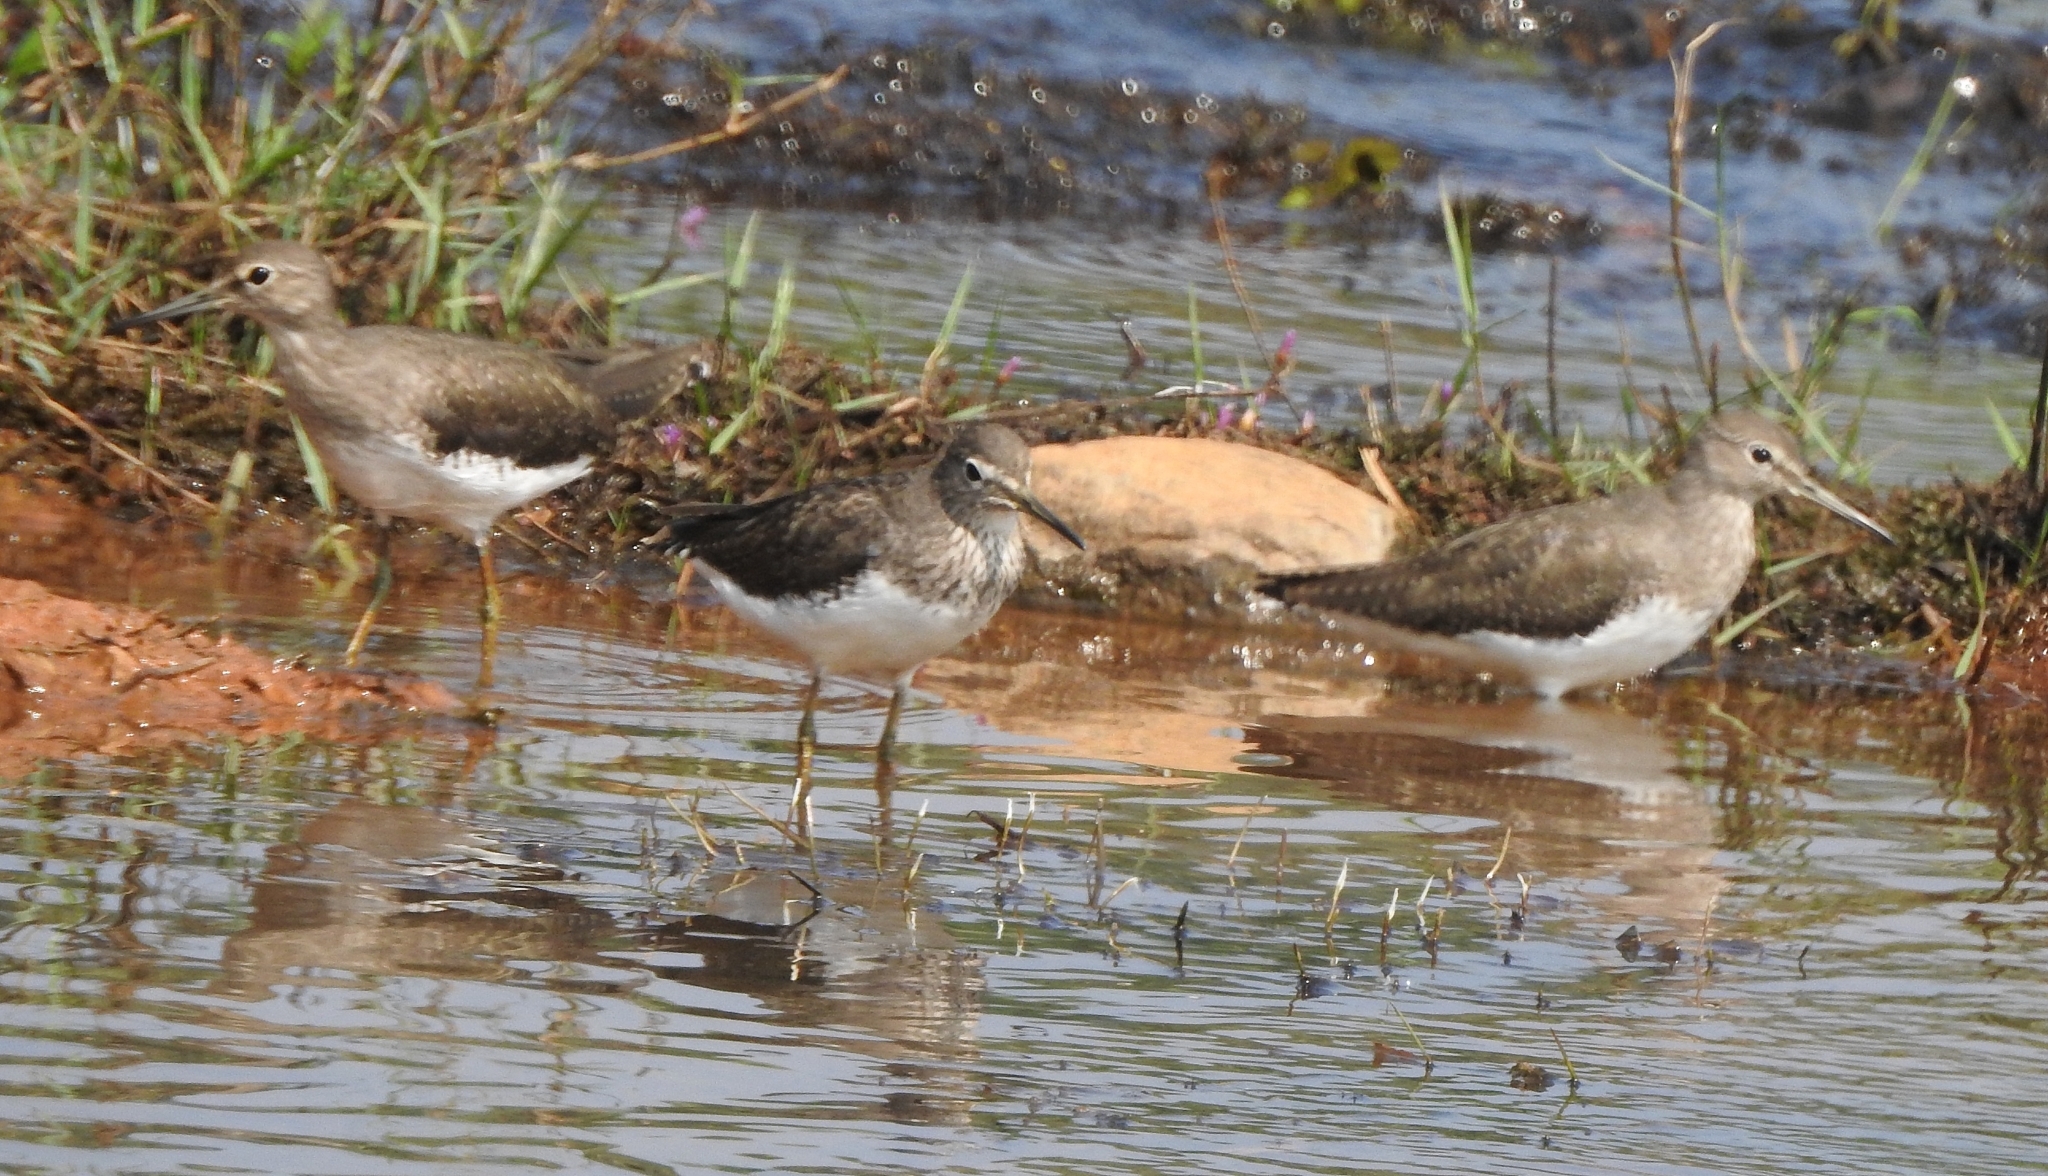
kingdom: Animalia
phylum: Chordata
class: Aves
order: Charadriiformes
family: Scolopacidae
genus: Tringa
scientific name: Tringa ochropus
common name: Green sandpiper
